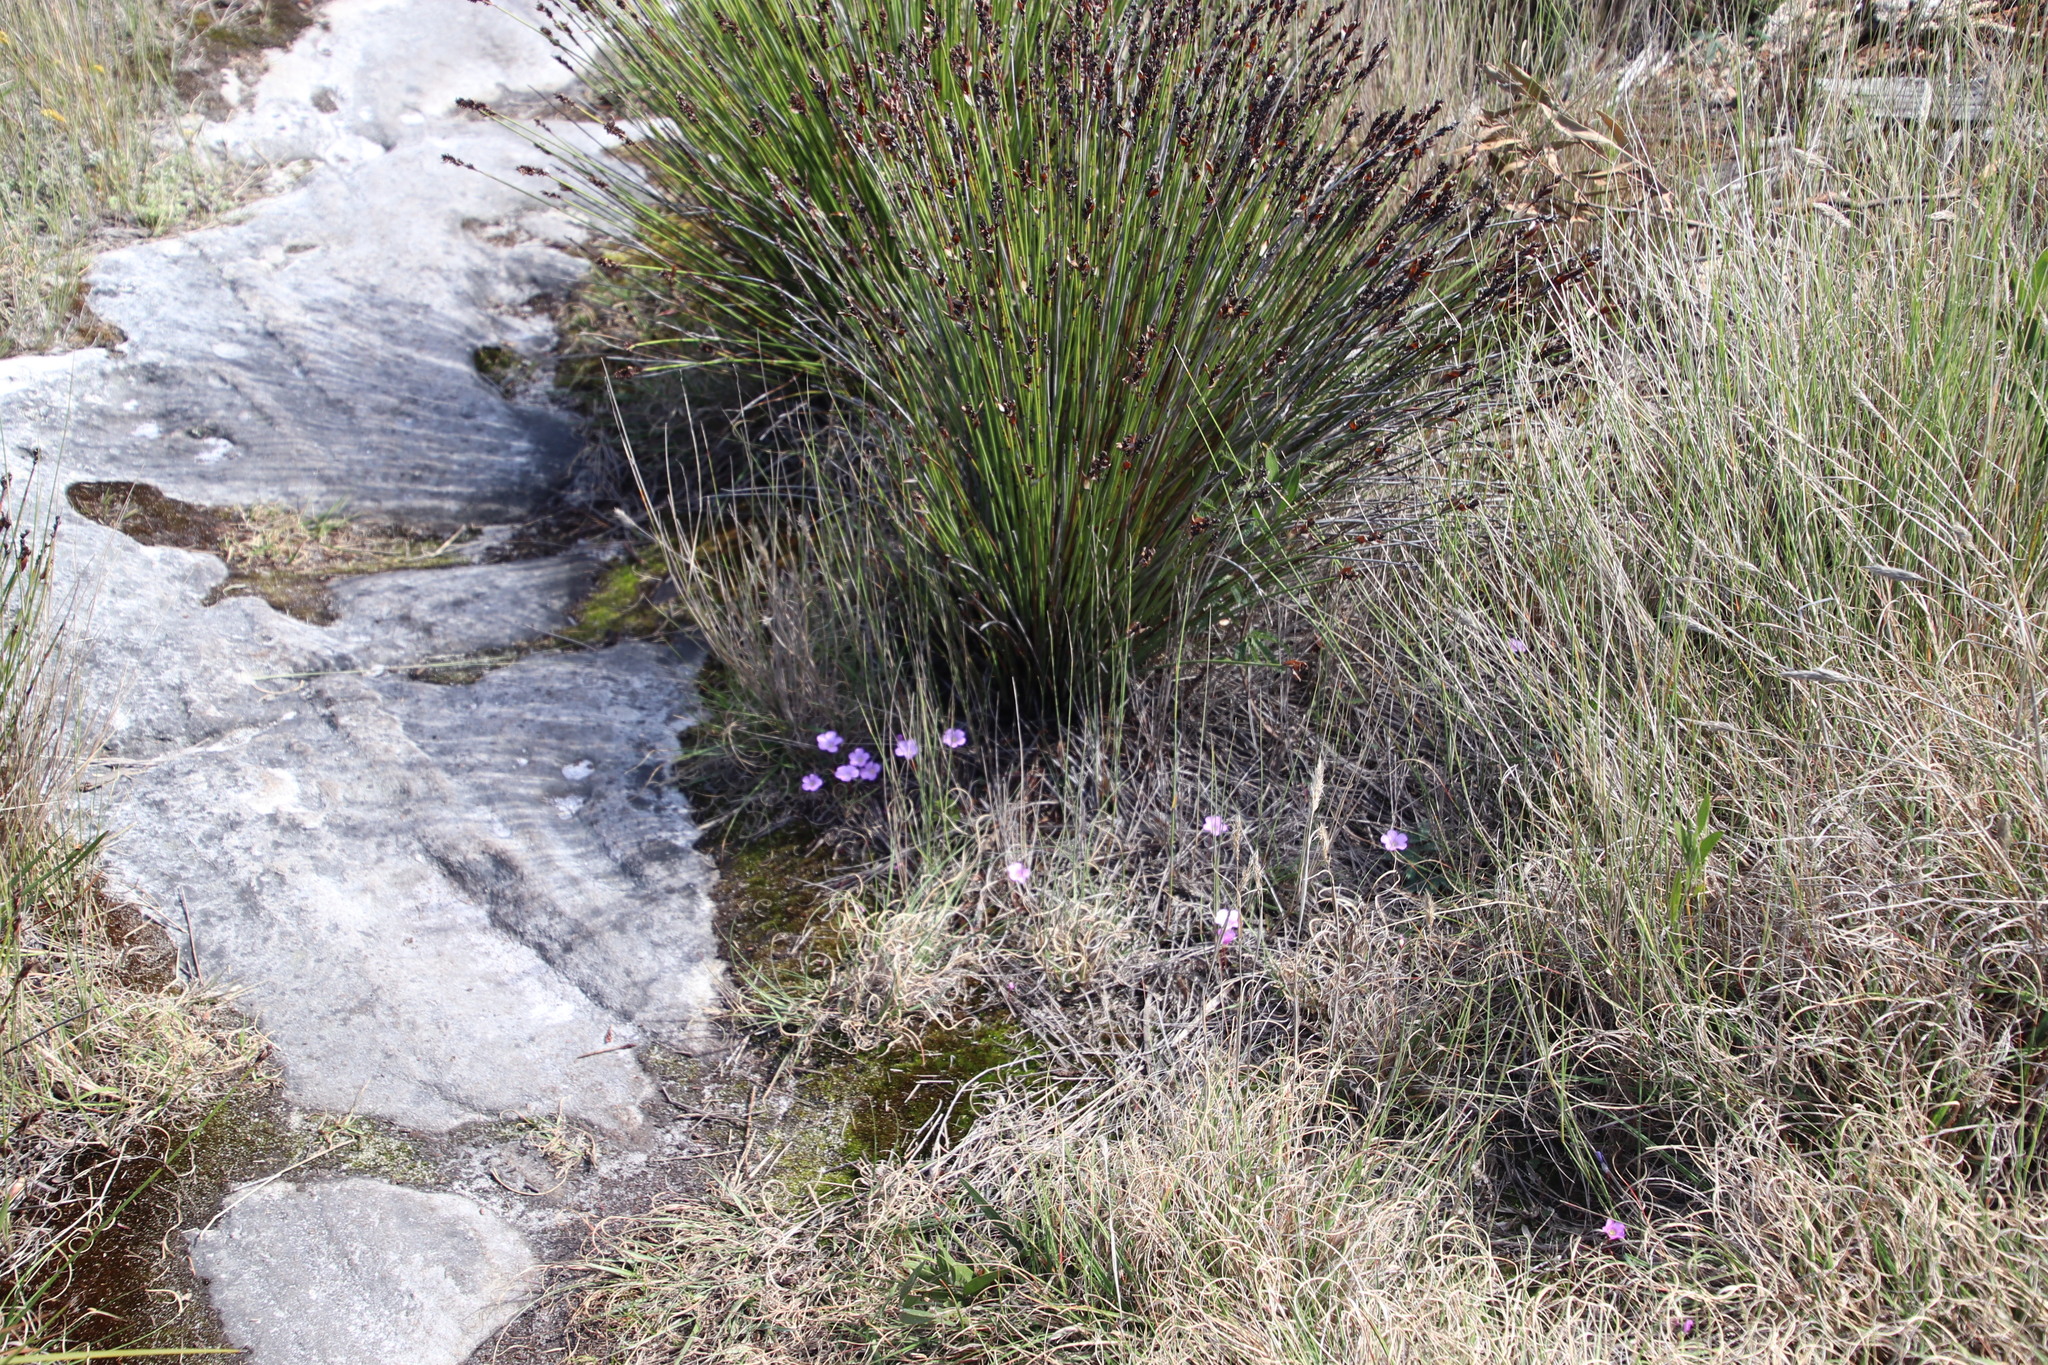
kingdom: Plantae
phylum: Tracheophyta
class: Magnoliopsida
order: Oxalidales
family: Oxalidaceae
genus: Oxalis
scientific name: Oxalis commutata
